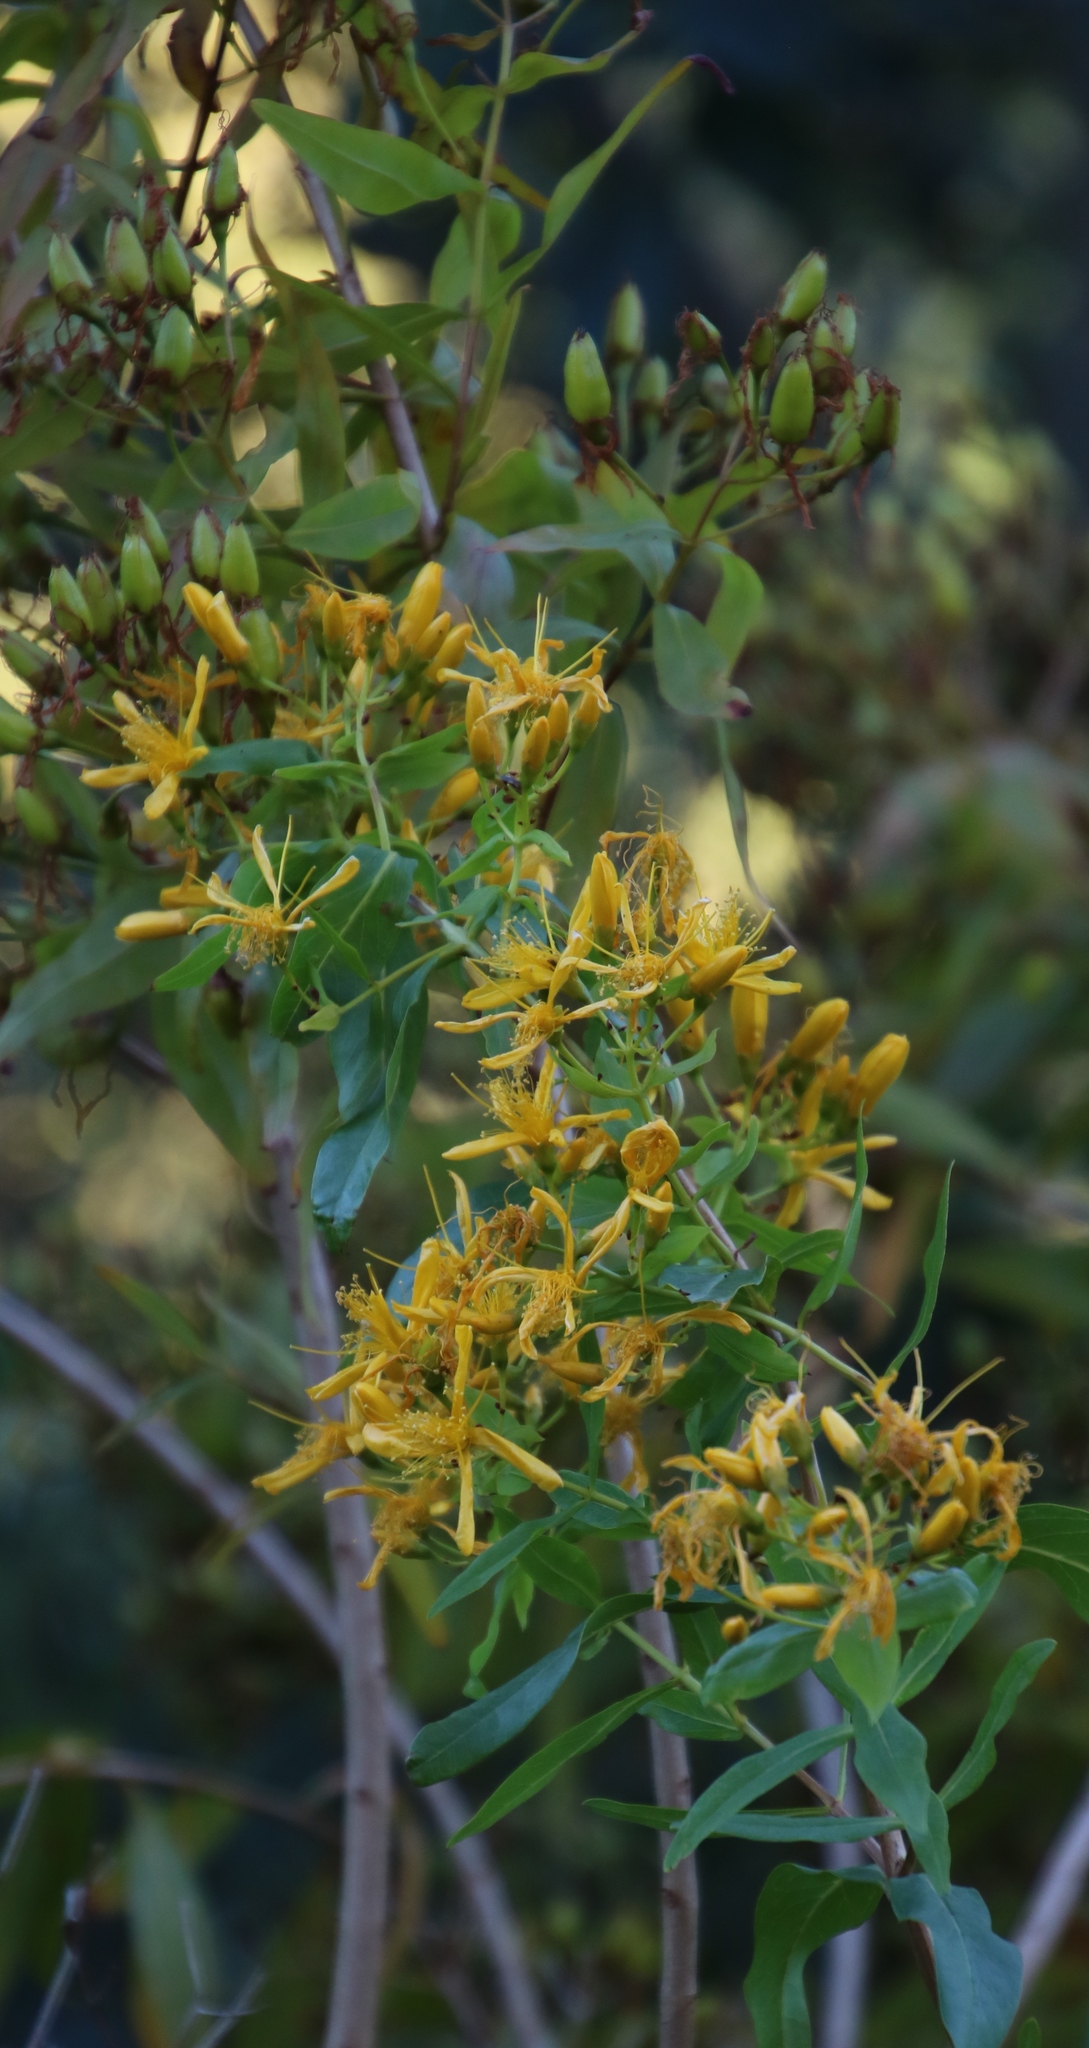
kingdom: Plantae
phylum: Tracheophyta
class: Magnoliopsida
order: Malpighiales
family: Hypericaceae
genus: Hypericum
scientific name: Hypericum canariense
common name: Canary island st. johnswort
